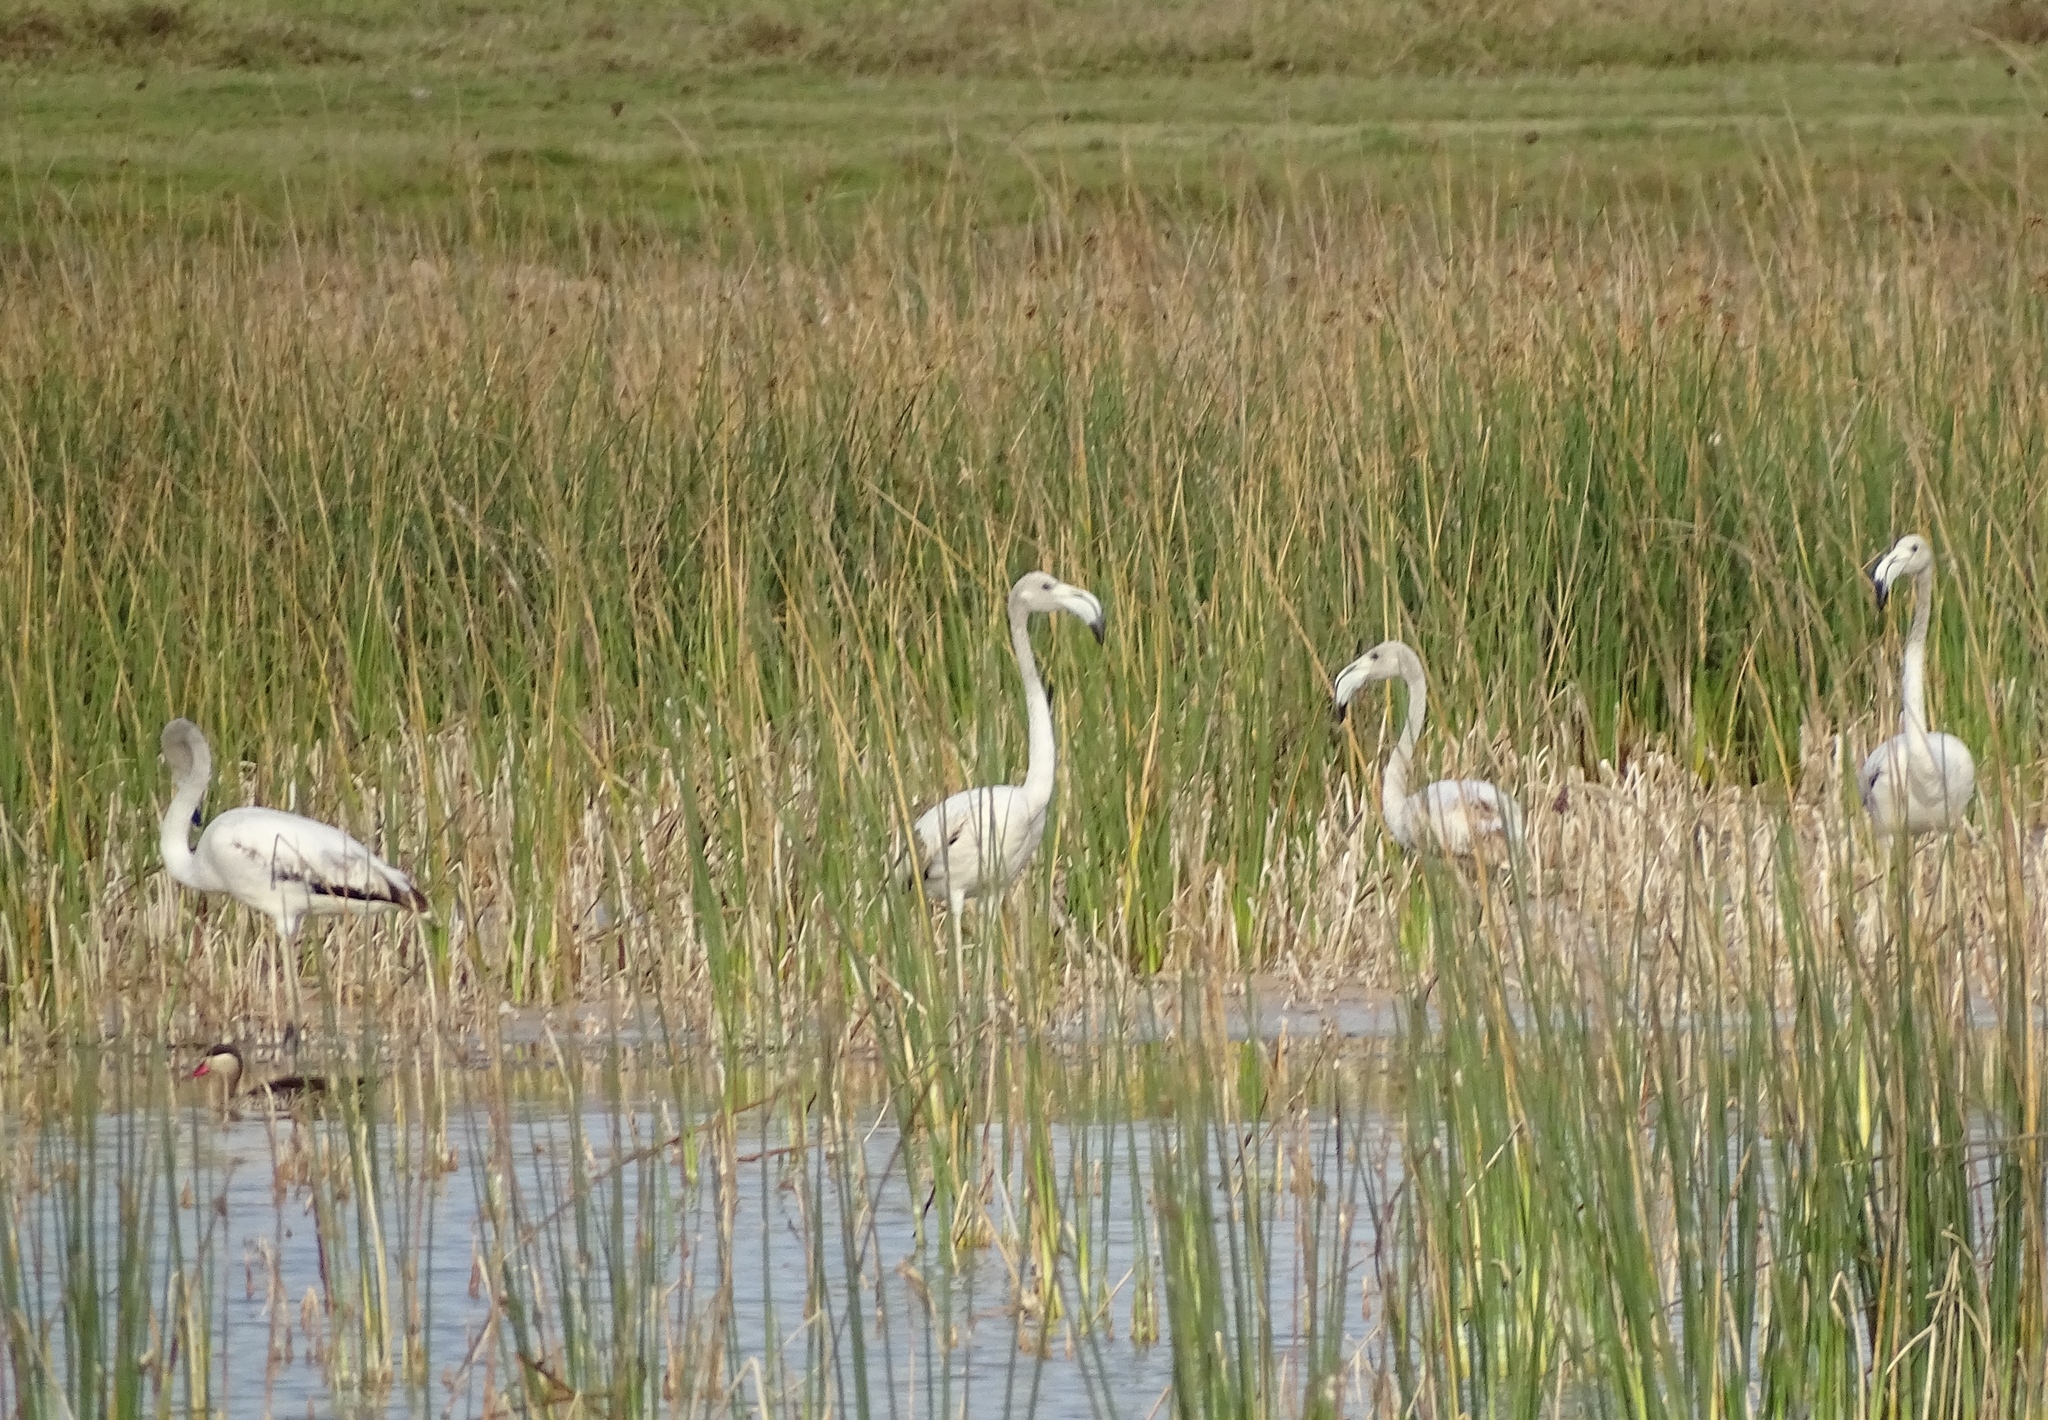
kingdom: Animalia
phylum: Chordata
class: Aves
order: Phoenicopteriformes
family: Phoenicopteridae
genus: Phoenicopterus
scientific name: Phoenicopterus roseus
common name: Greater flamingo
